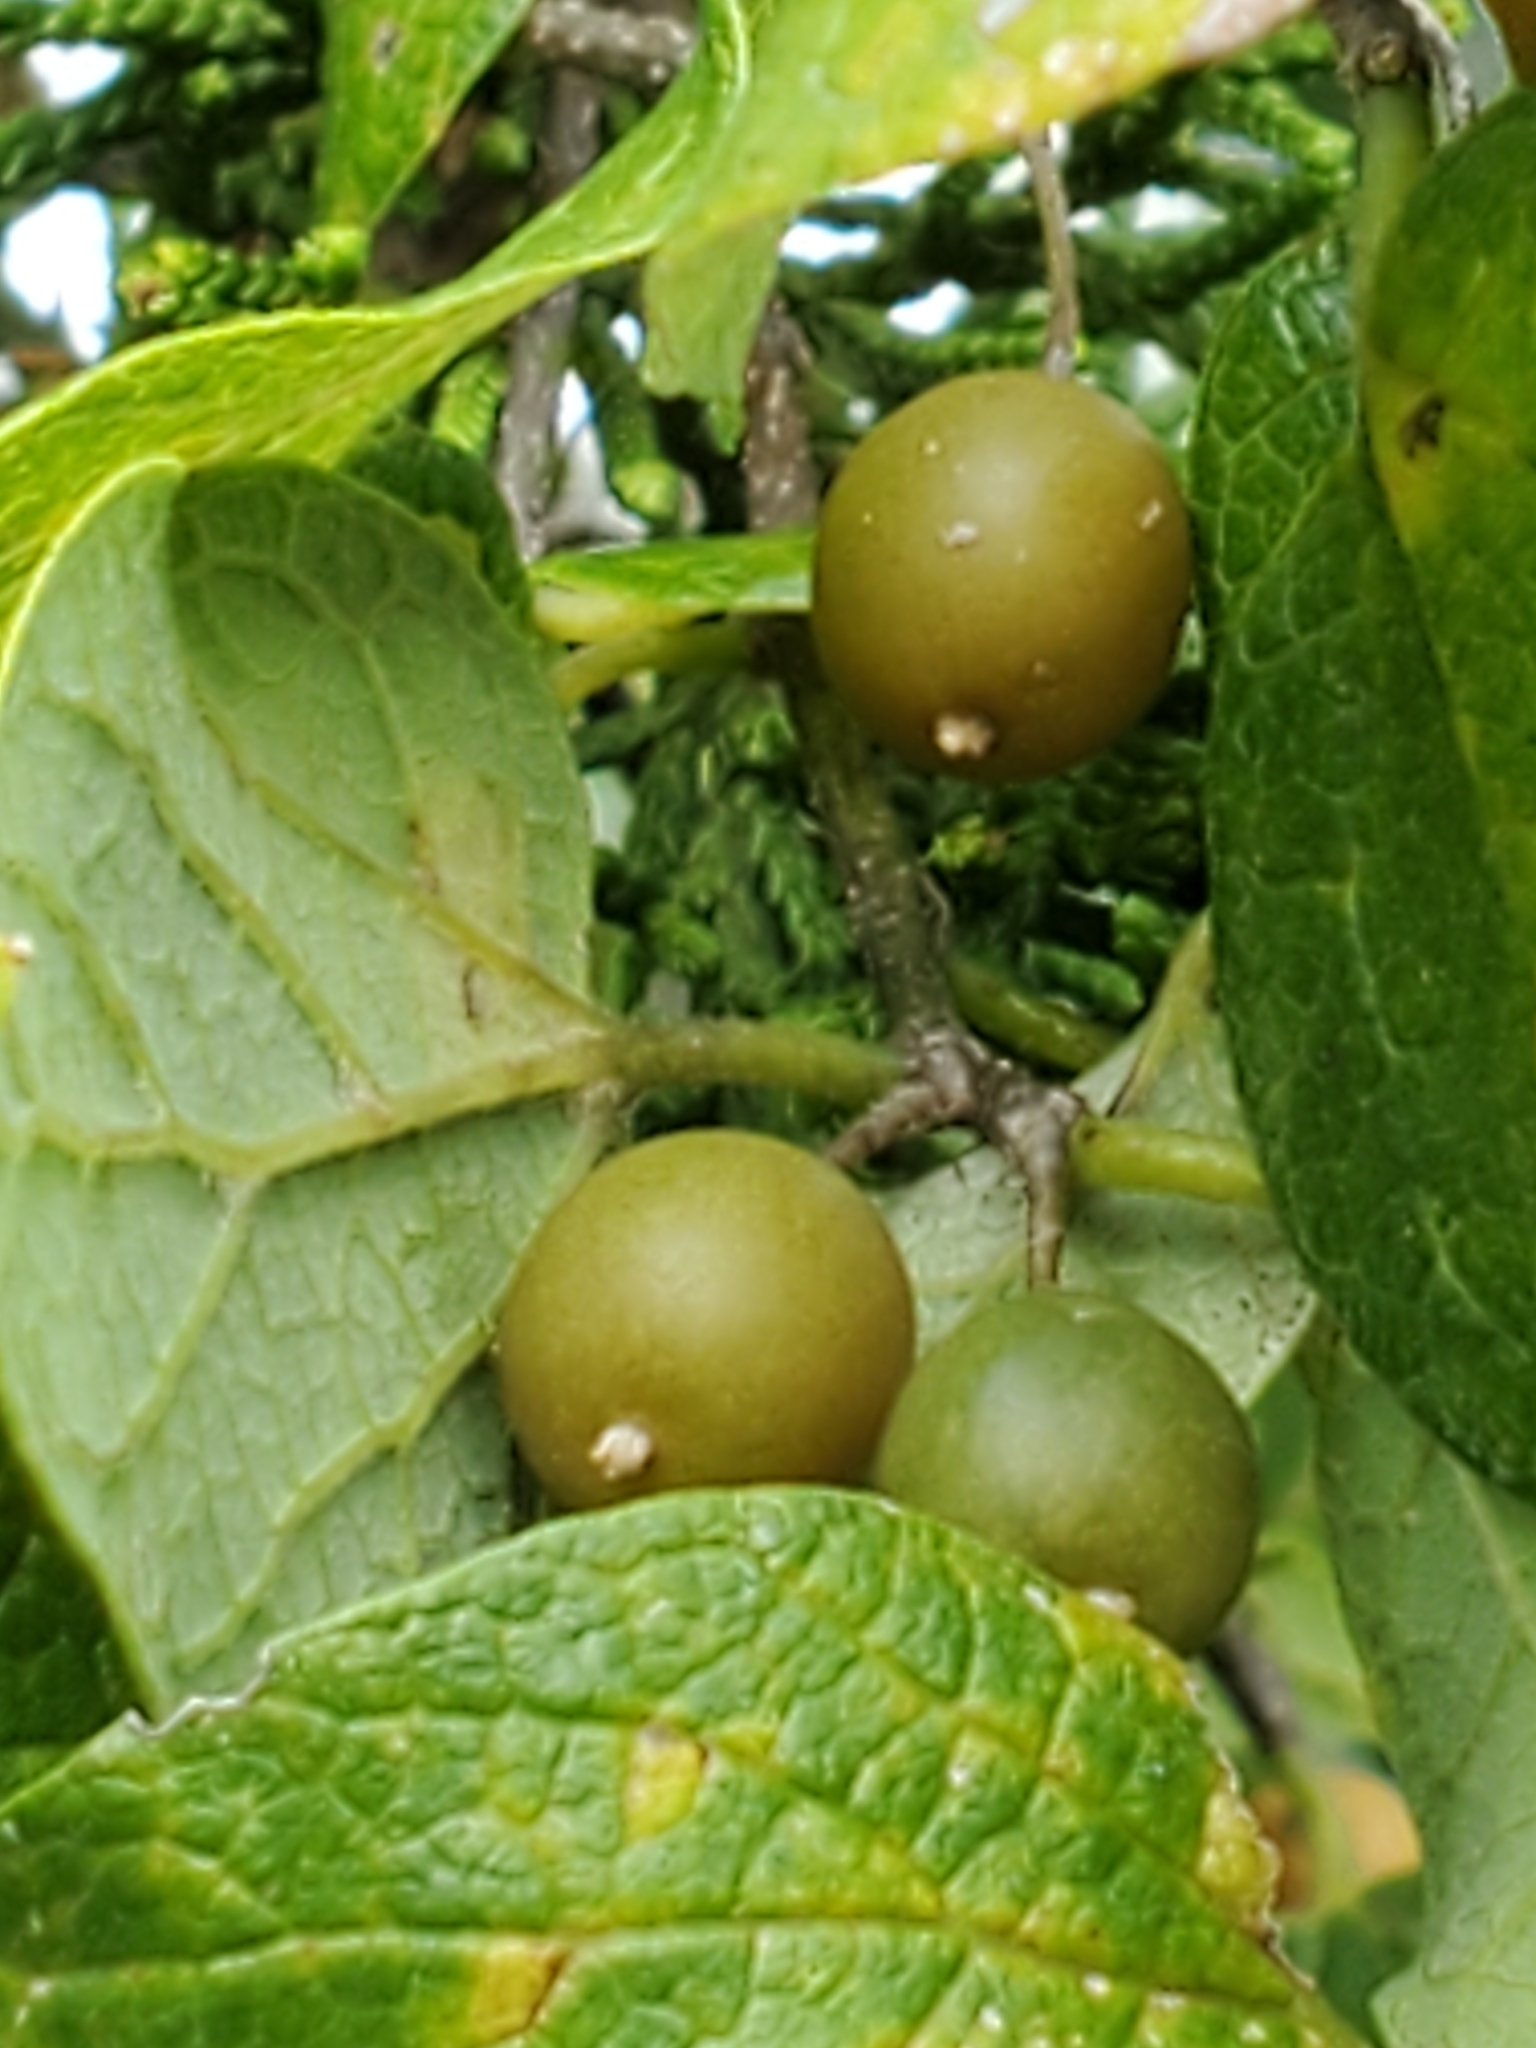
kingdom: Plantae
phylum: Tracheophyta
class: Magnoliopsida
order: Rosales
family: Cannabaceae
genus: Celtis
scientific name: Celtis reticulata
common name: Netleaf hackberry
